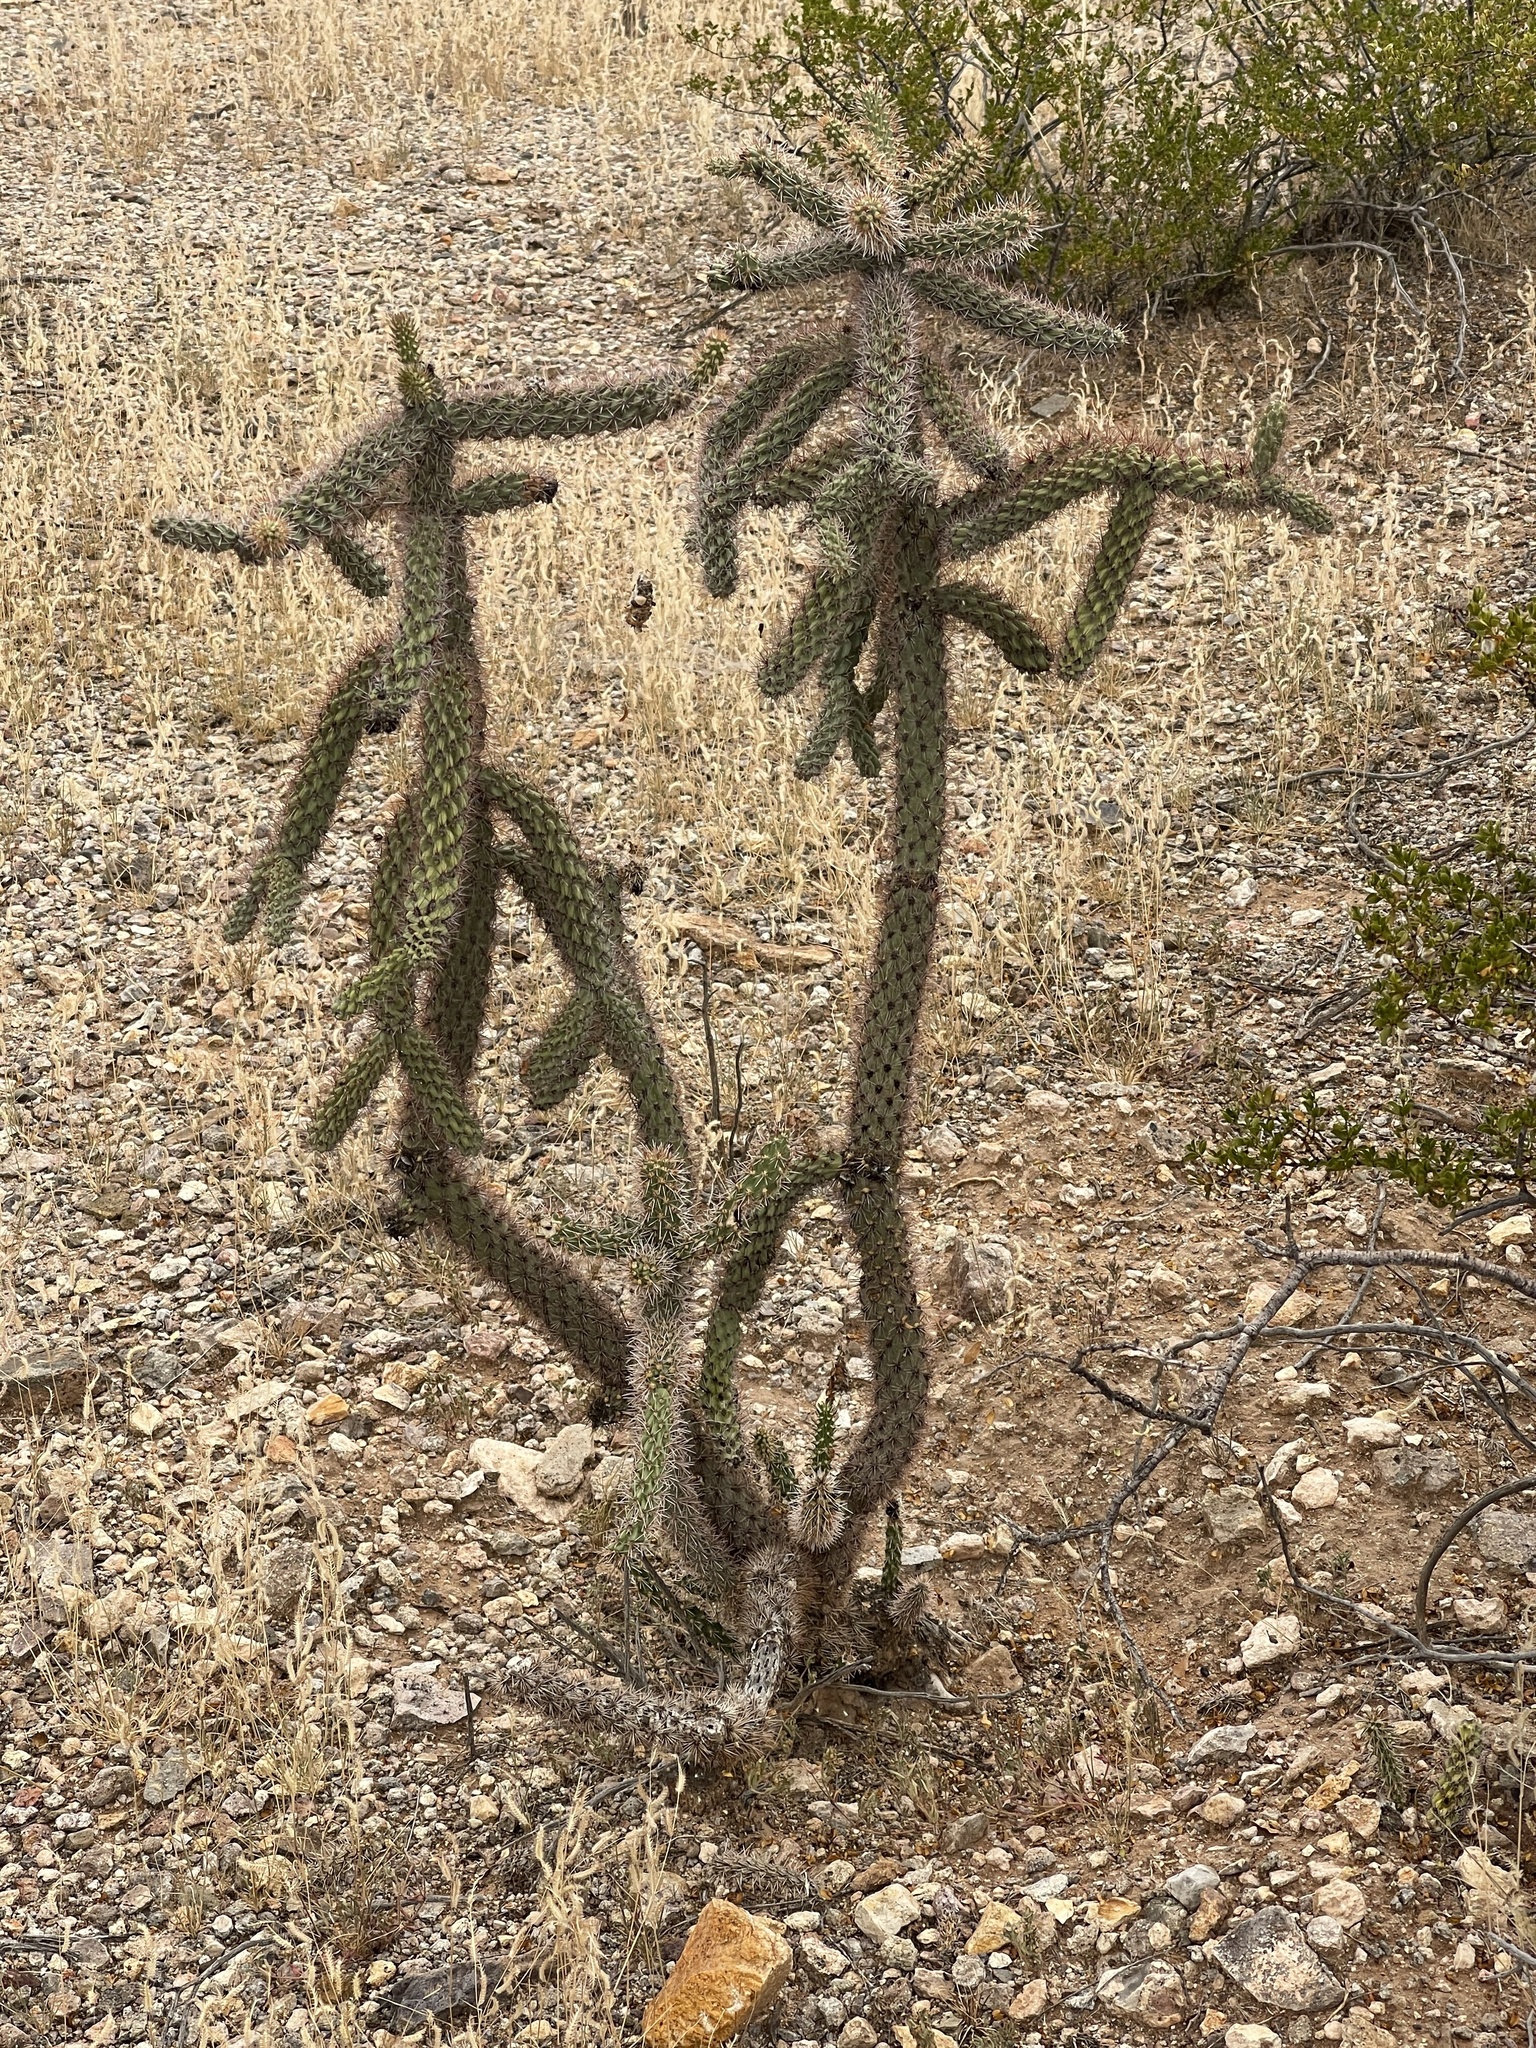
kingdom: Plantae
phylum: Tracheophyta
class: Magnoliopsida
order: Caryophyllales
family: Cactaceae
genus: Cylindropuntia
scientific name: Cylindropuntia imbricata
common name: Candelabrum cactus
